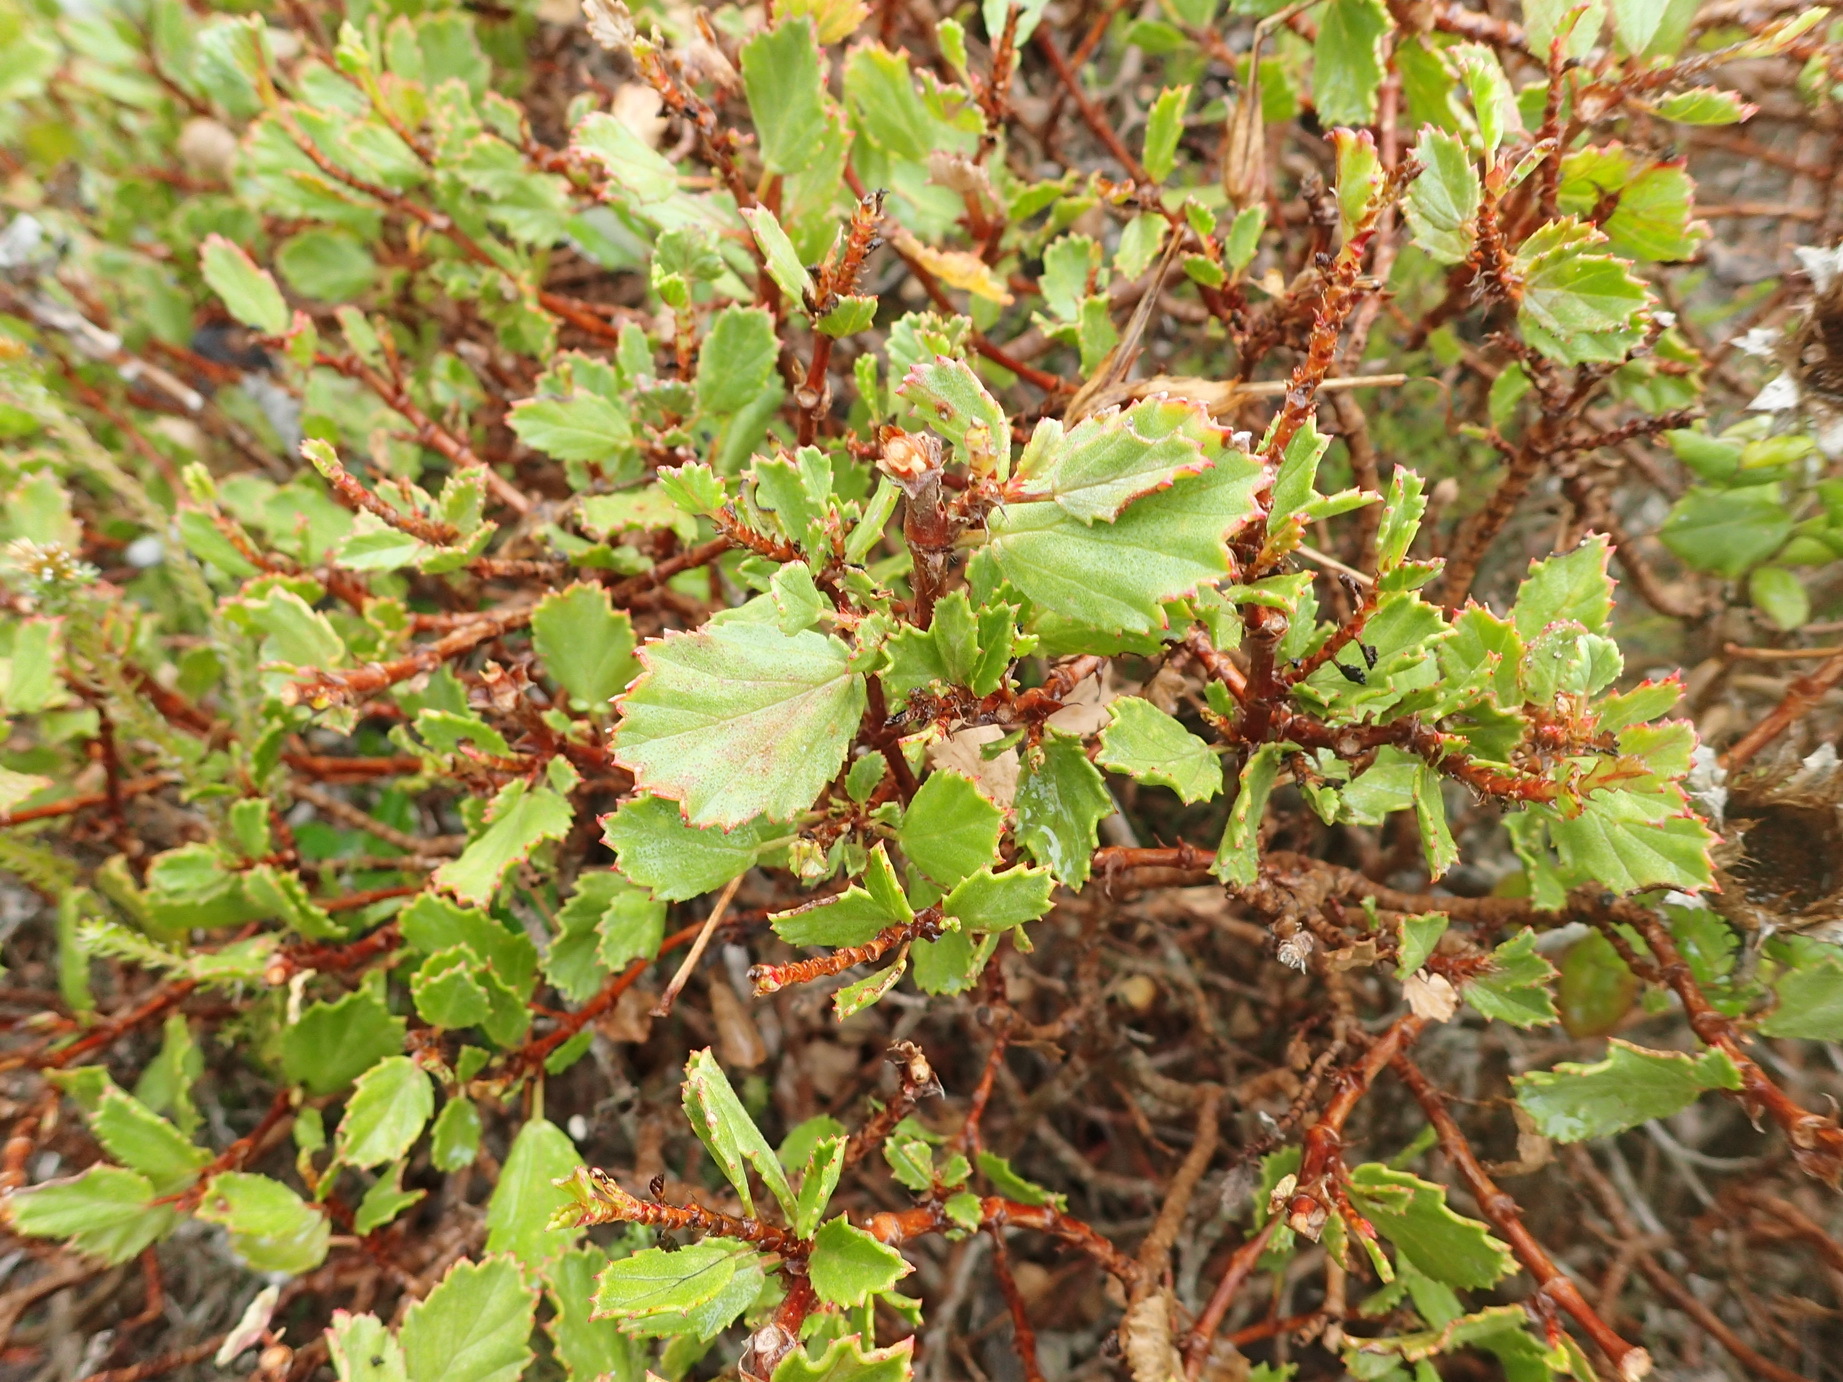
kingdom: Plantae
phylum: Tracheophyta
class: Magnoliopsida
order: Geraniales
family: Geraniaceae
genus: Pelargonium
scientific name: Pelargonium betulinum
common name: Birch-leaf pelargonium
